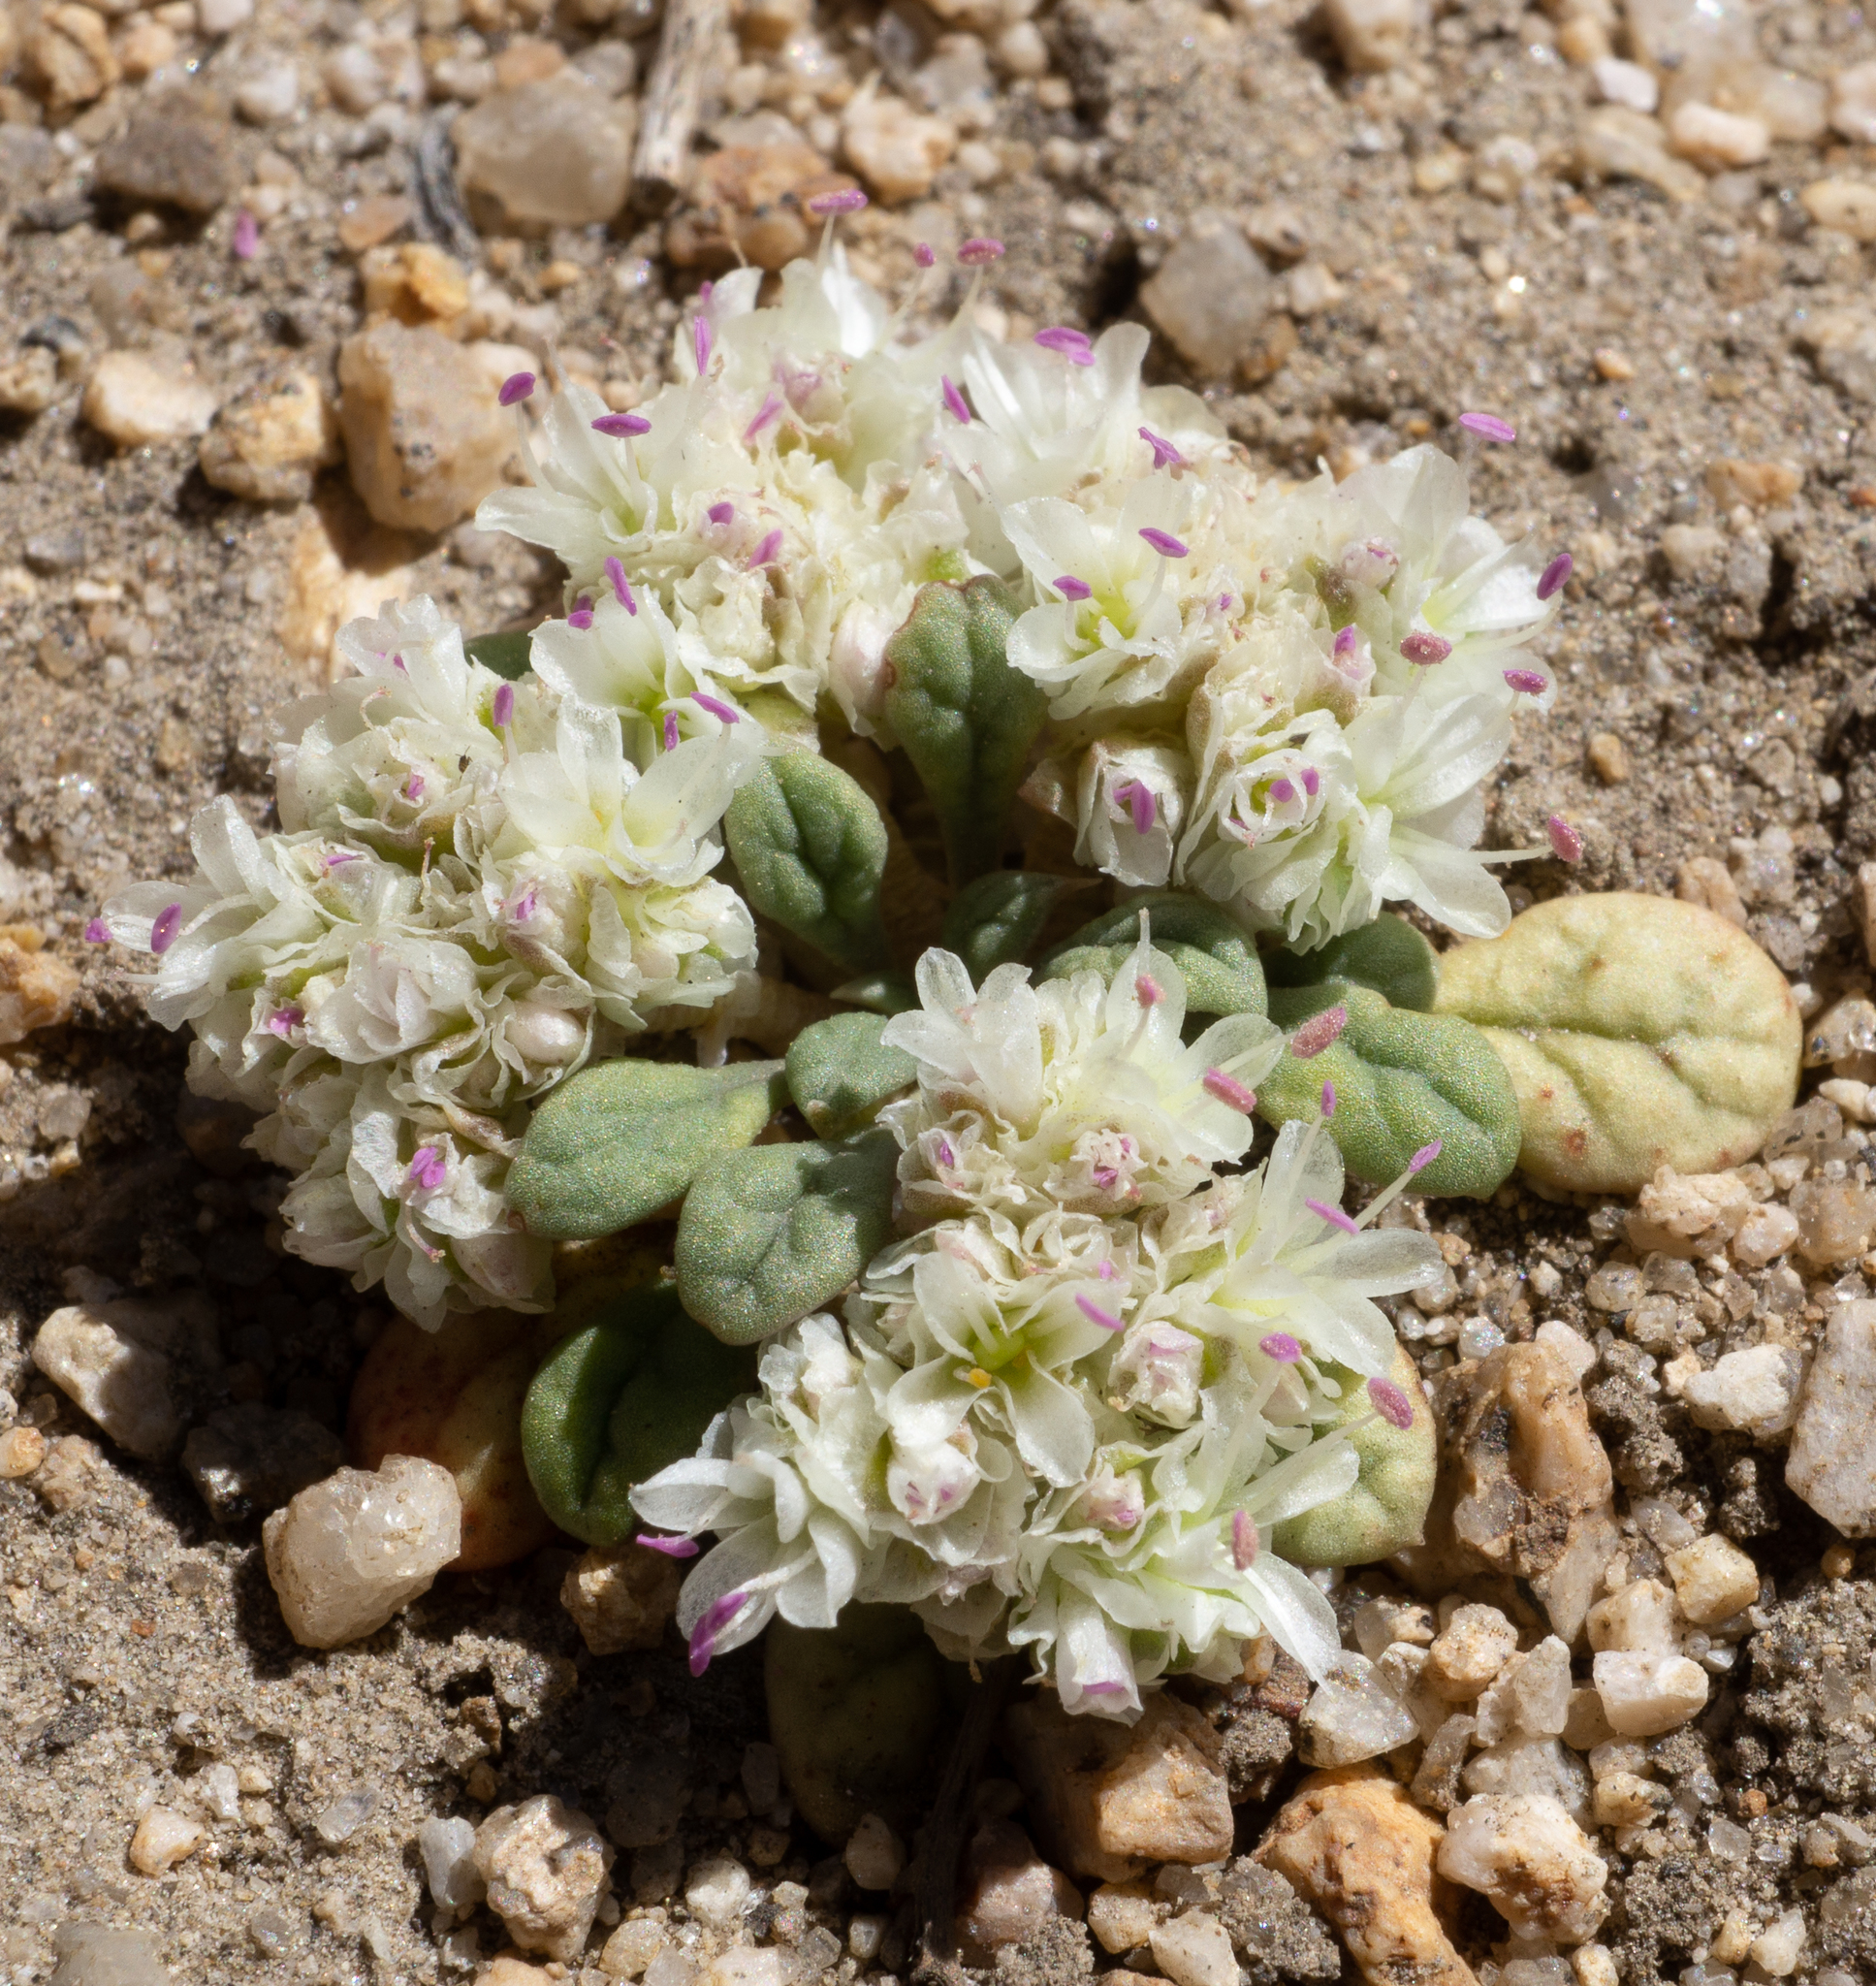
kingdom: Plantae
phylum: Tracheophyta
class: Magnoliopsida
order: Caryophyllales
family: Montiaceae
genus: Calyptridium
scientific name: Calyptridium monospermum
